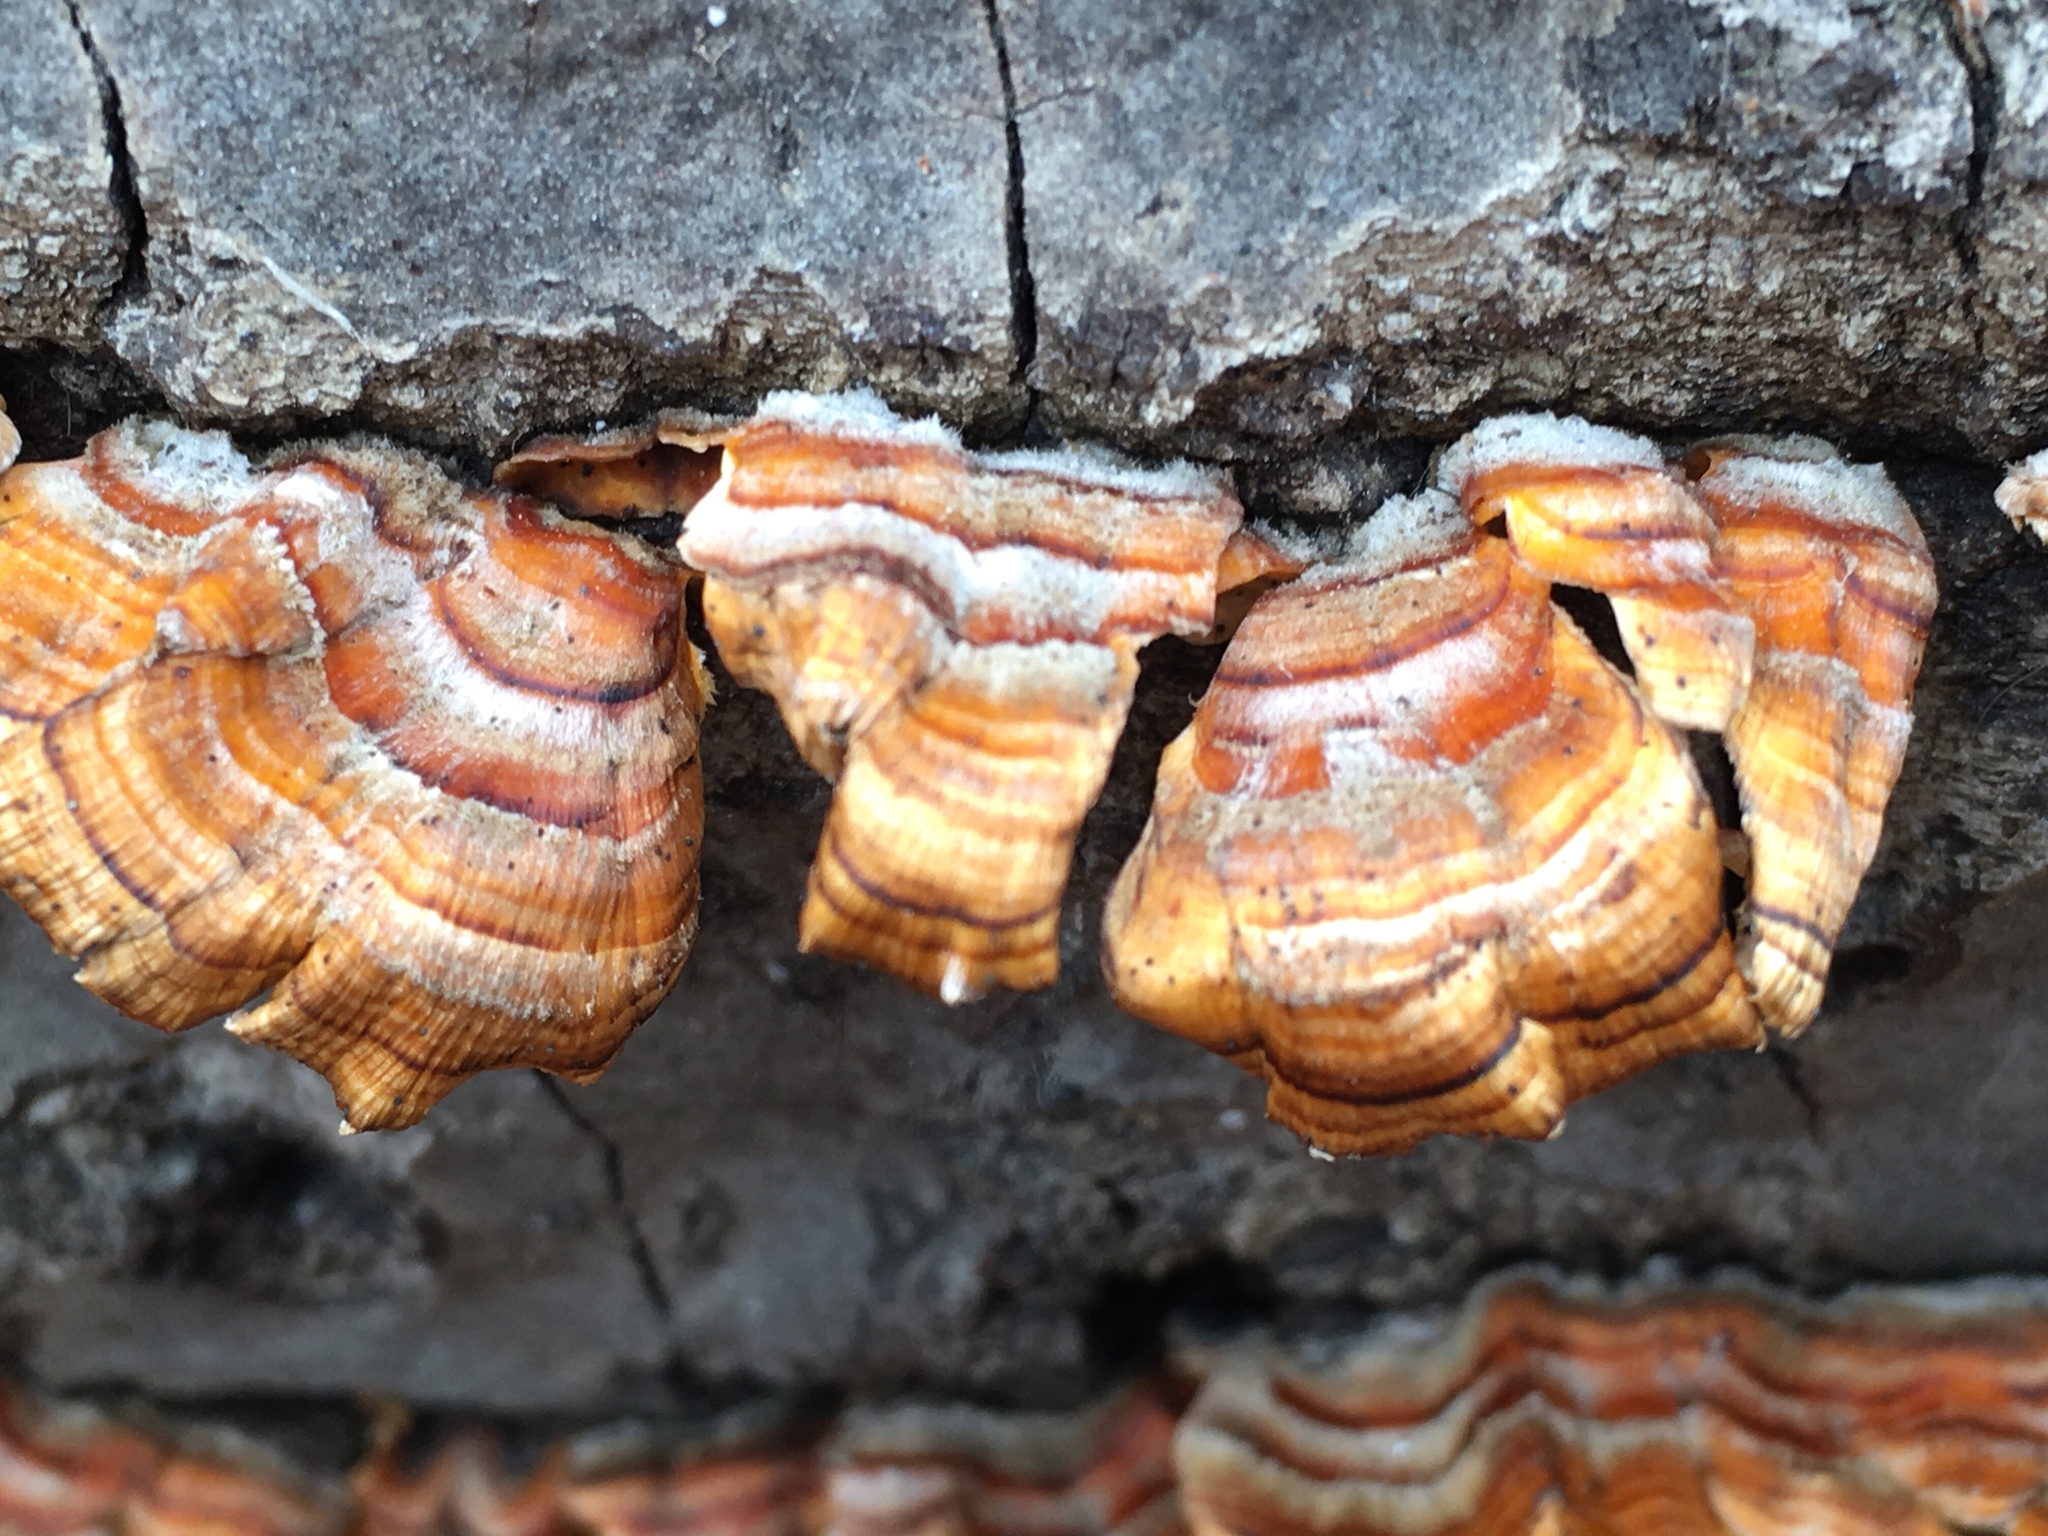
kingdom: Fungi
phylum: Basidiomycota
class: Agaricomycetes
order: Russulales
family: Stereaceae
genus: Stereum
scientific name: Stereum ostrea
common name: False turkeytail
